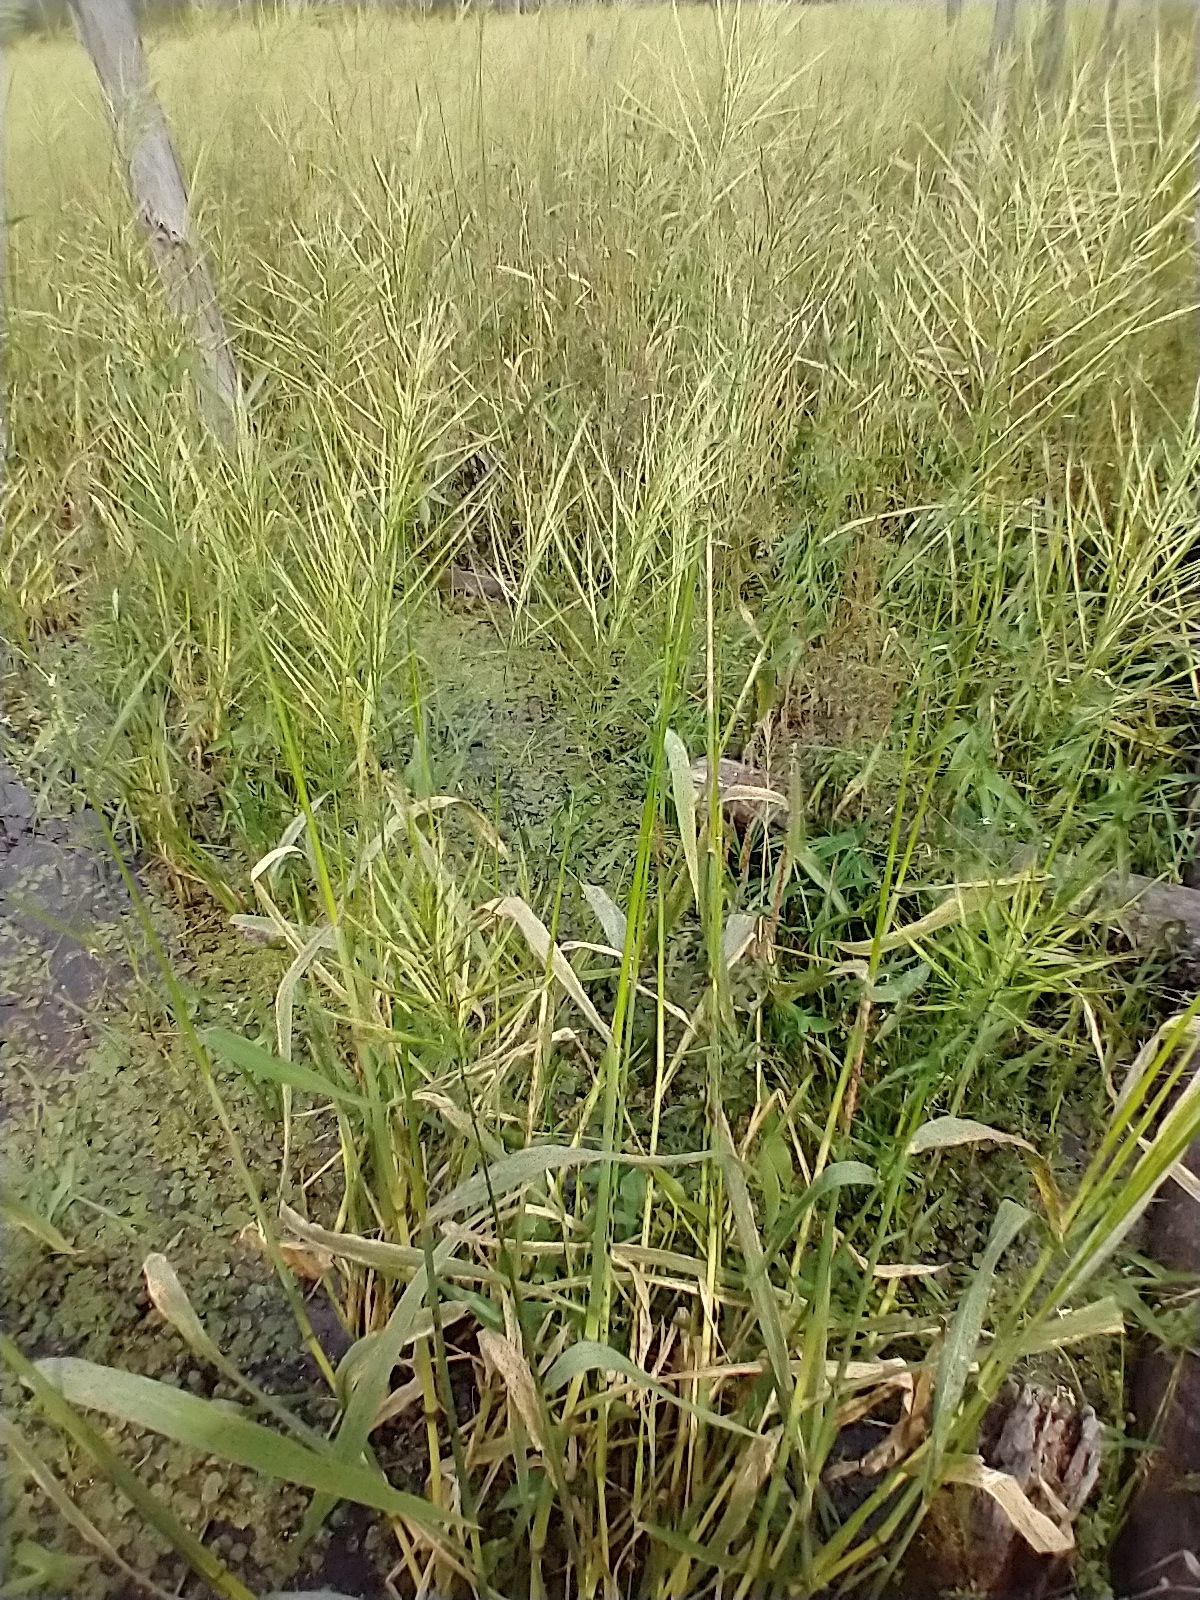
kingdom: Plantae
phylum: Tracheophyta
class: Liliopsida
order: Poales
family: Poaceae
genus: Zizania
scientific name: Zizania aquatica
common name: Annual wildrice
